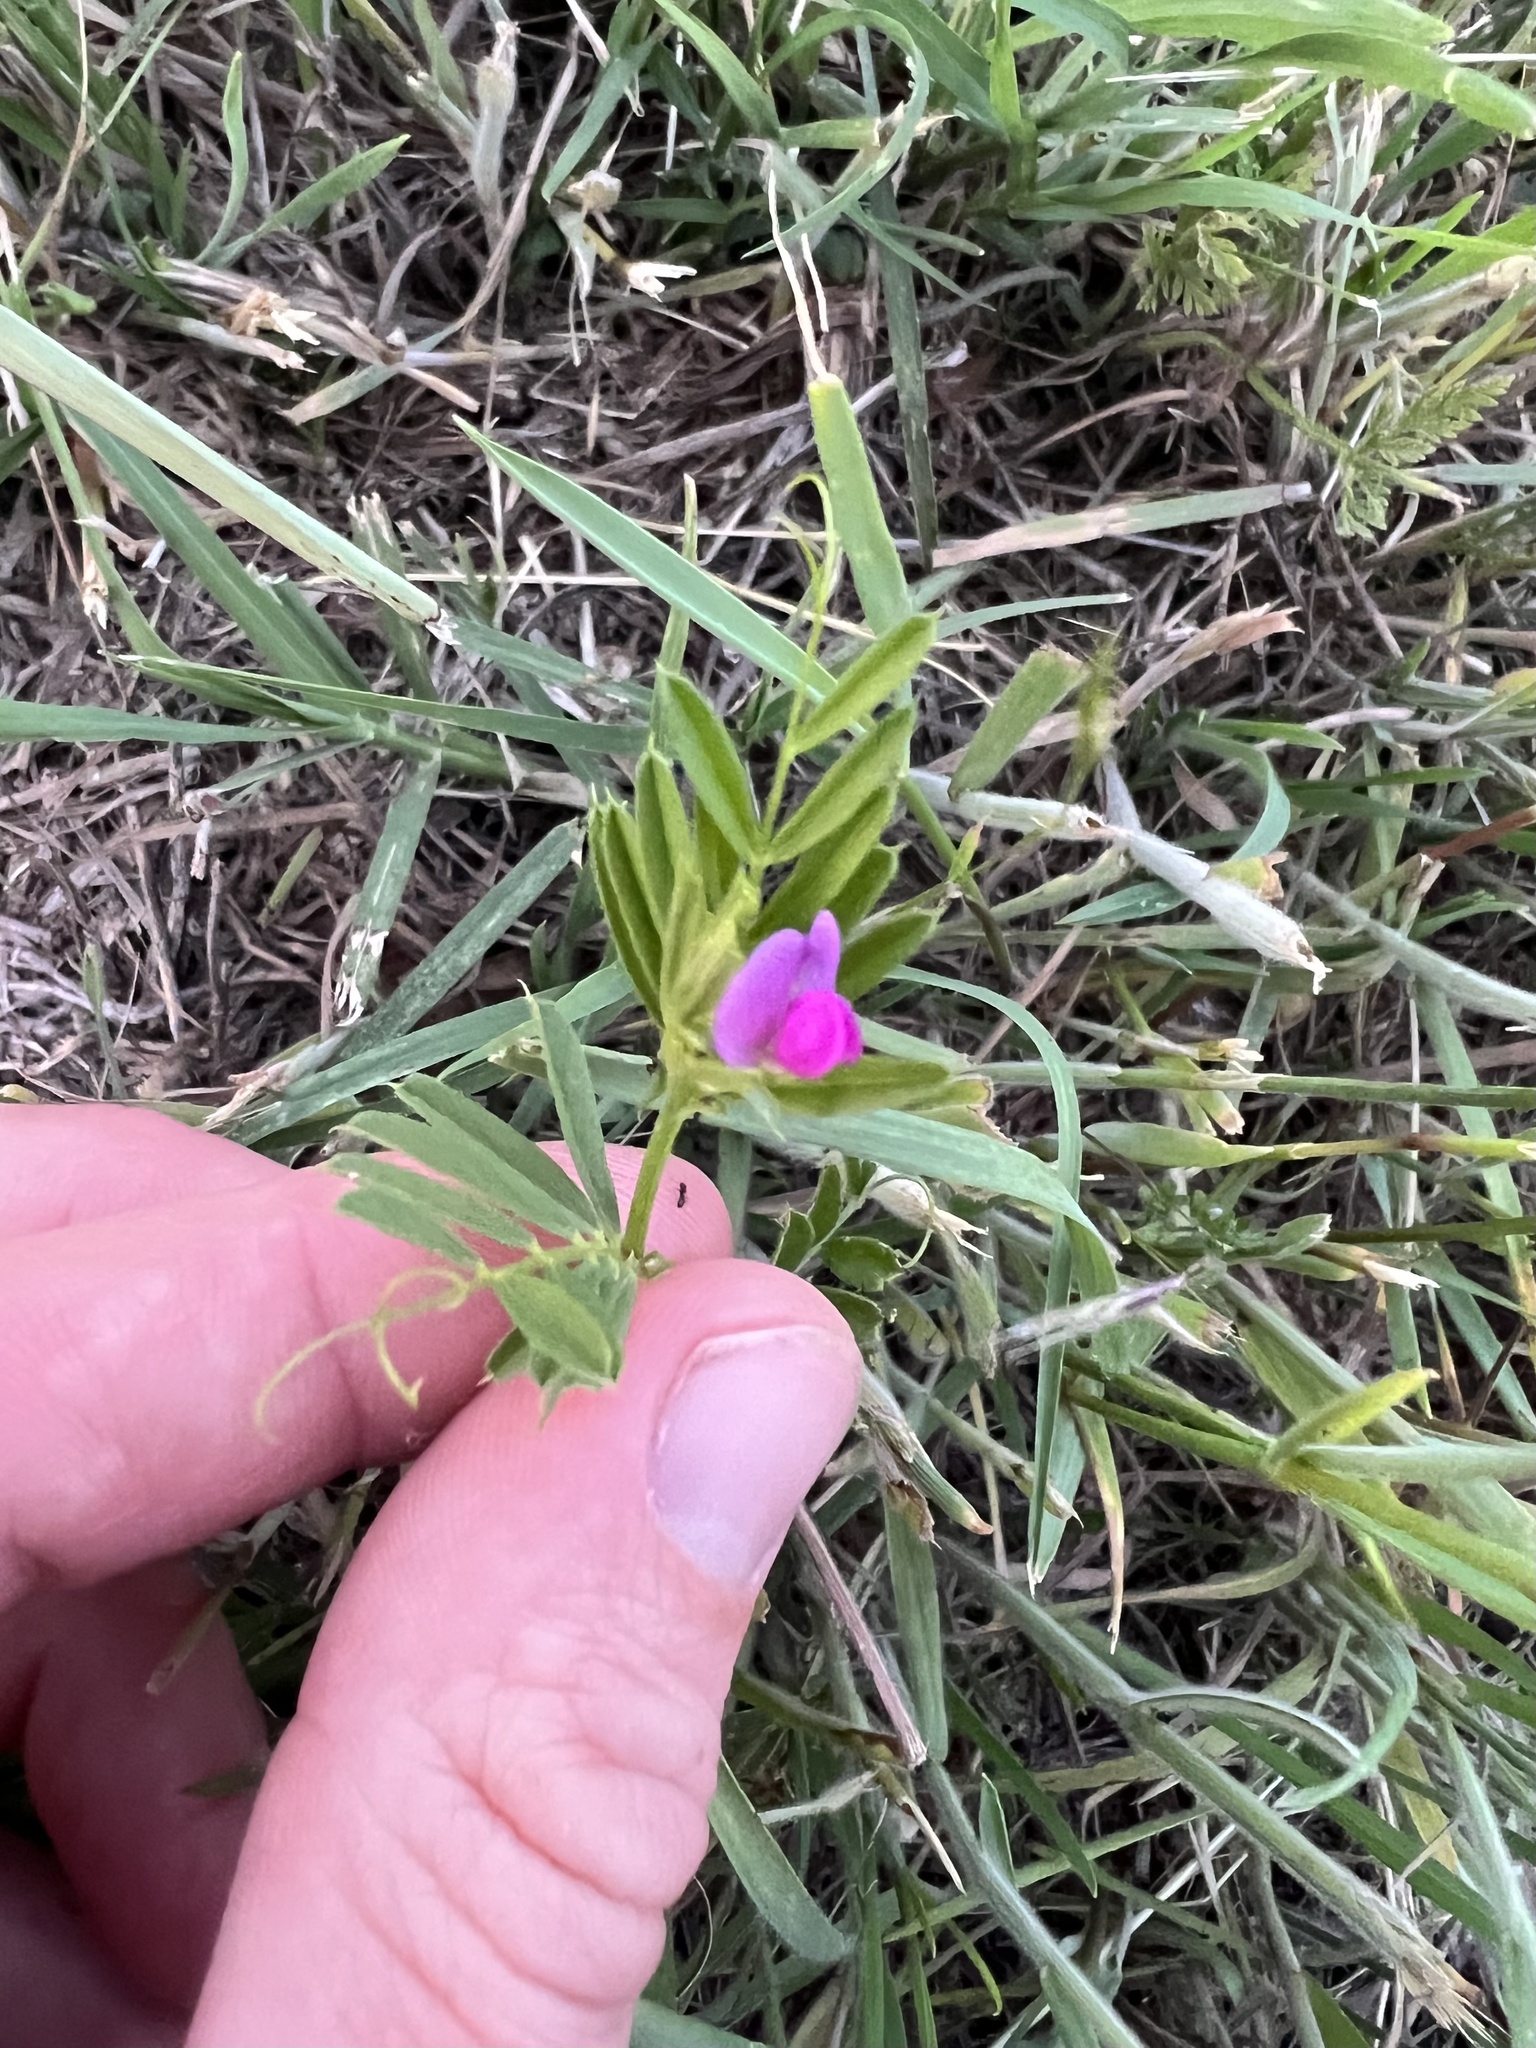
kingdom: Plantae
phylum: Tracheophyta
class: Magnoliopsida
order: Fabales
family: Fabaceae
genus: Vicia
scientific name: Vicia sativa
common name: Garden vetch
